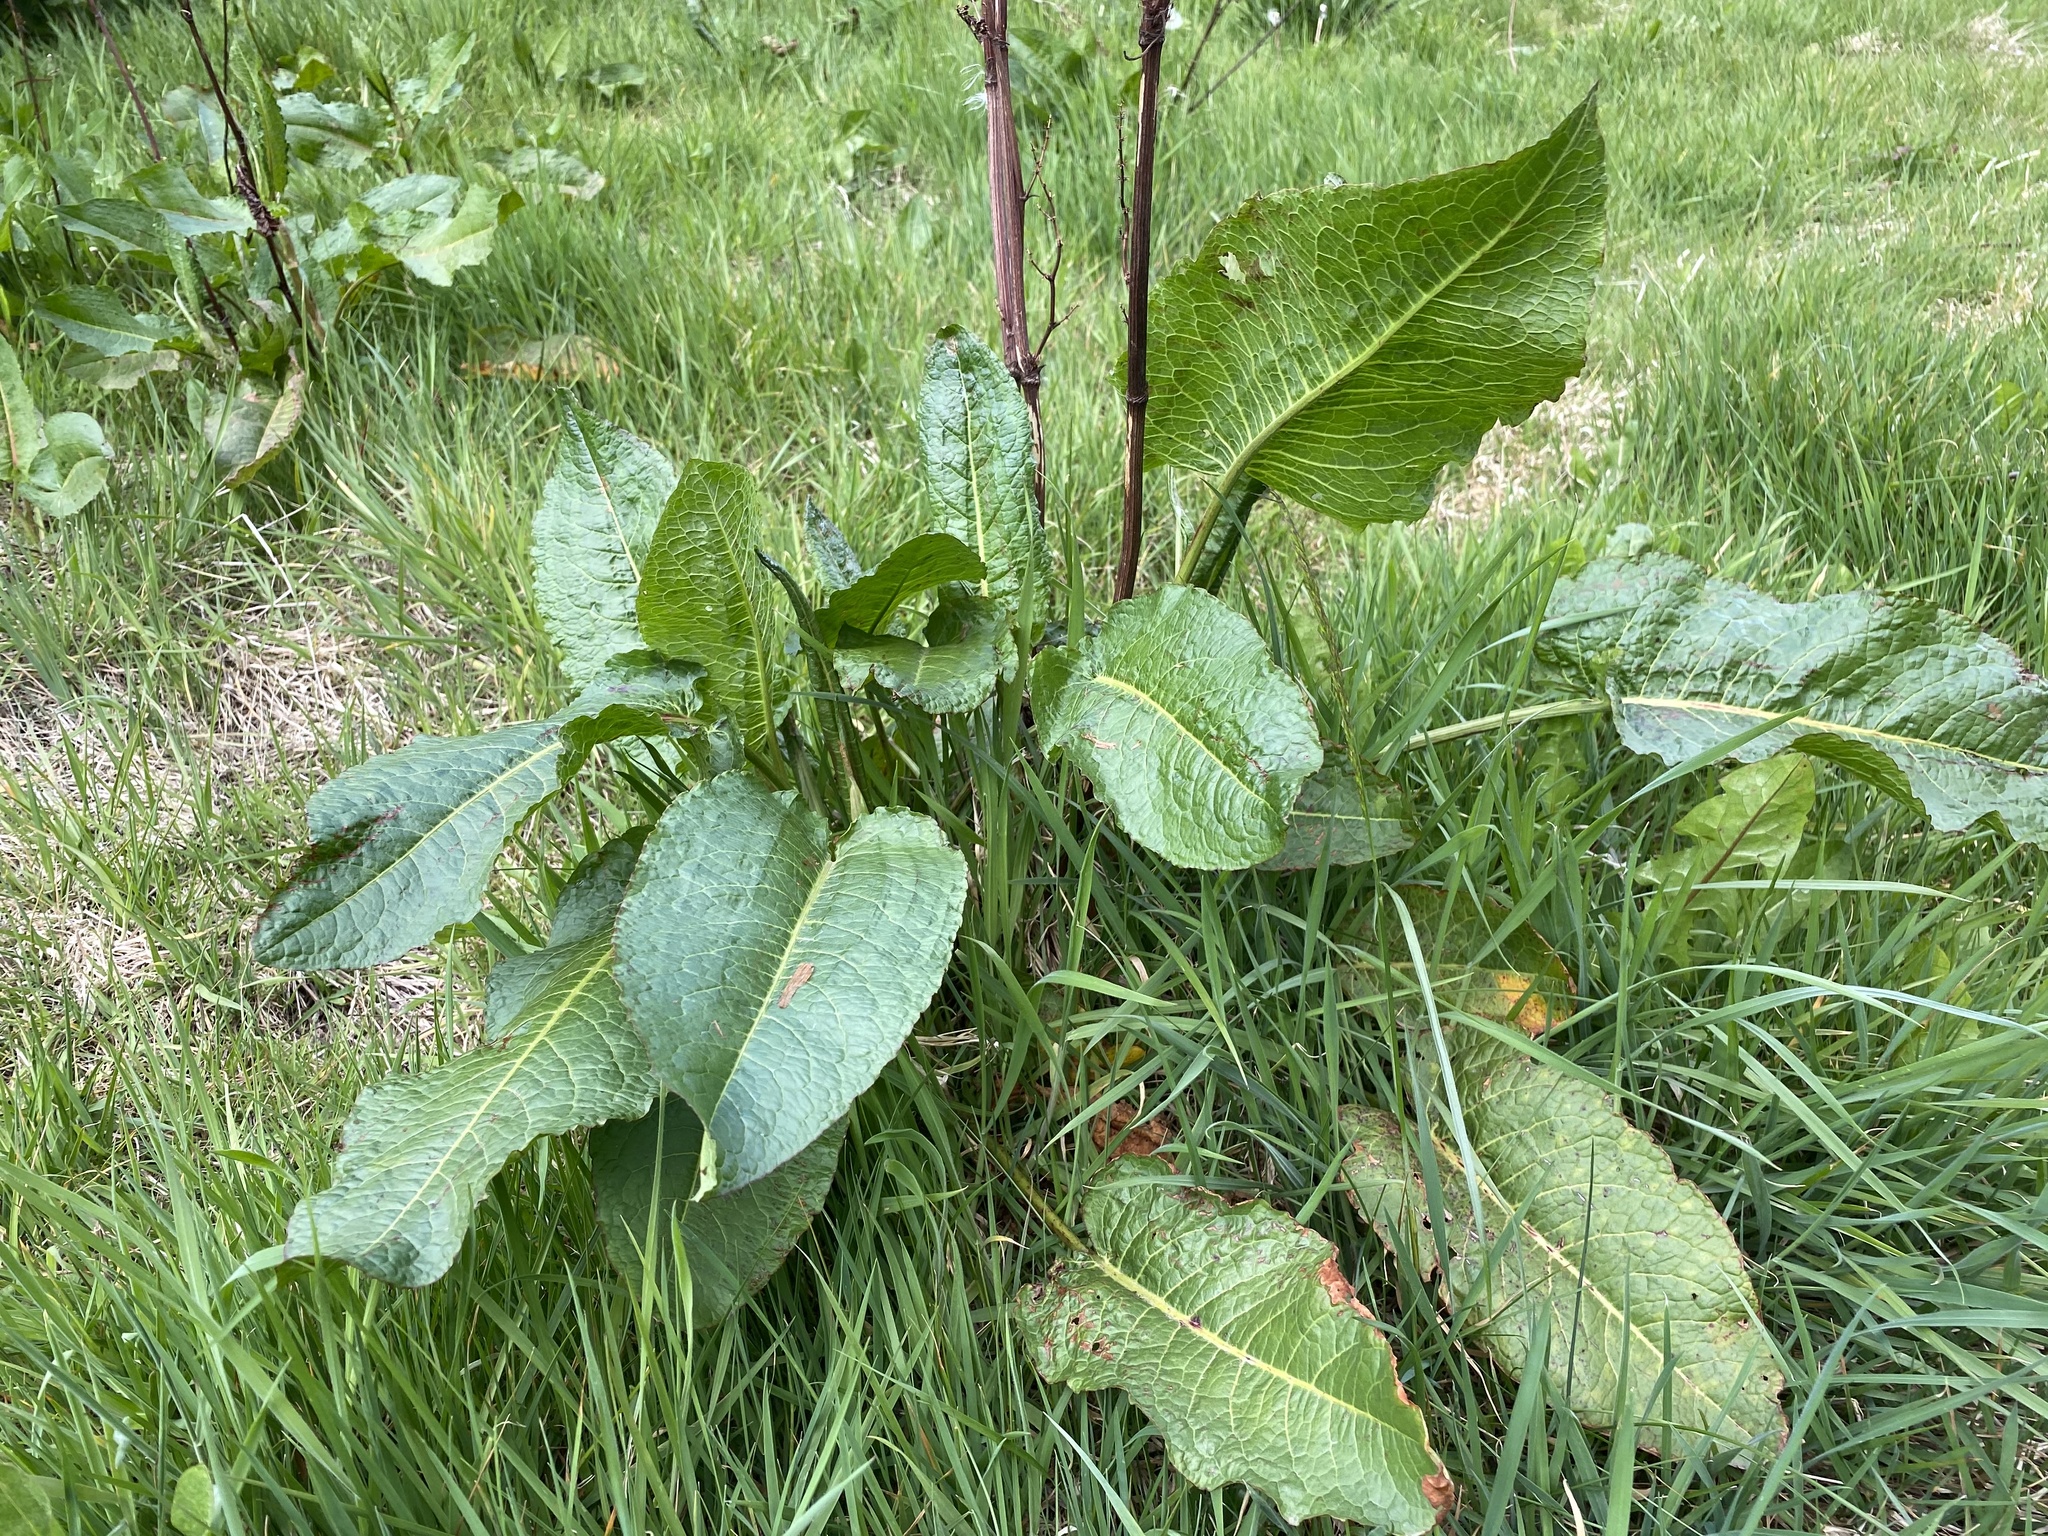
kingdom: Plantae
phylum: Tracheophyta
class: Magnoliopsida
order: Caryophyllales
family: Polygonaceae
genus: Rumex
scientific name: Rumex obtusifolius
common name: Bitter dock
